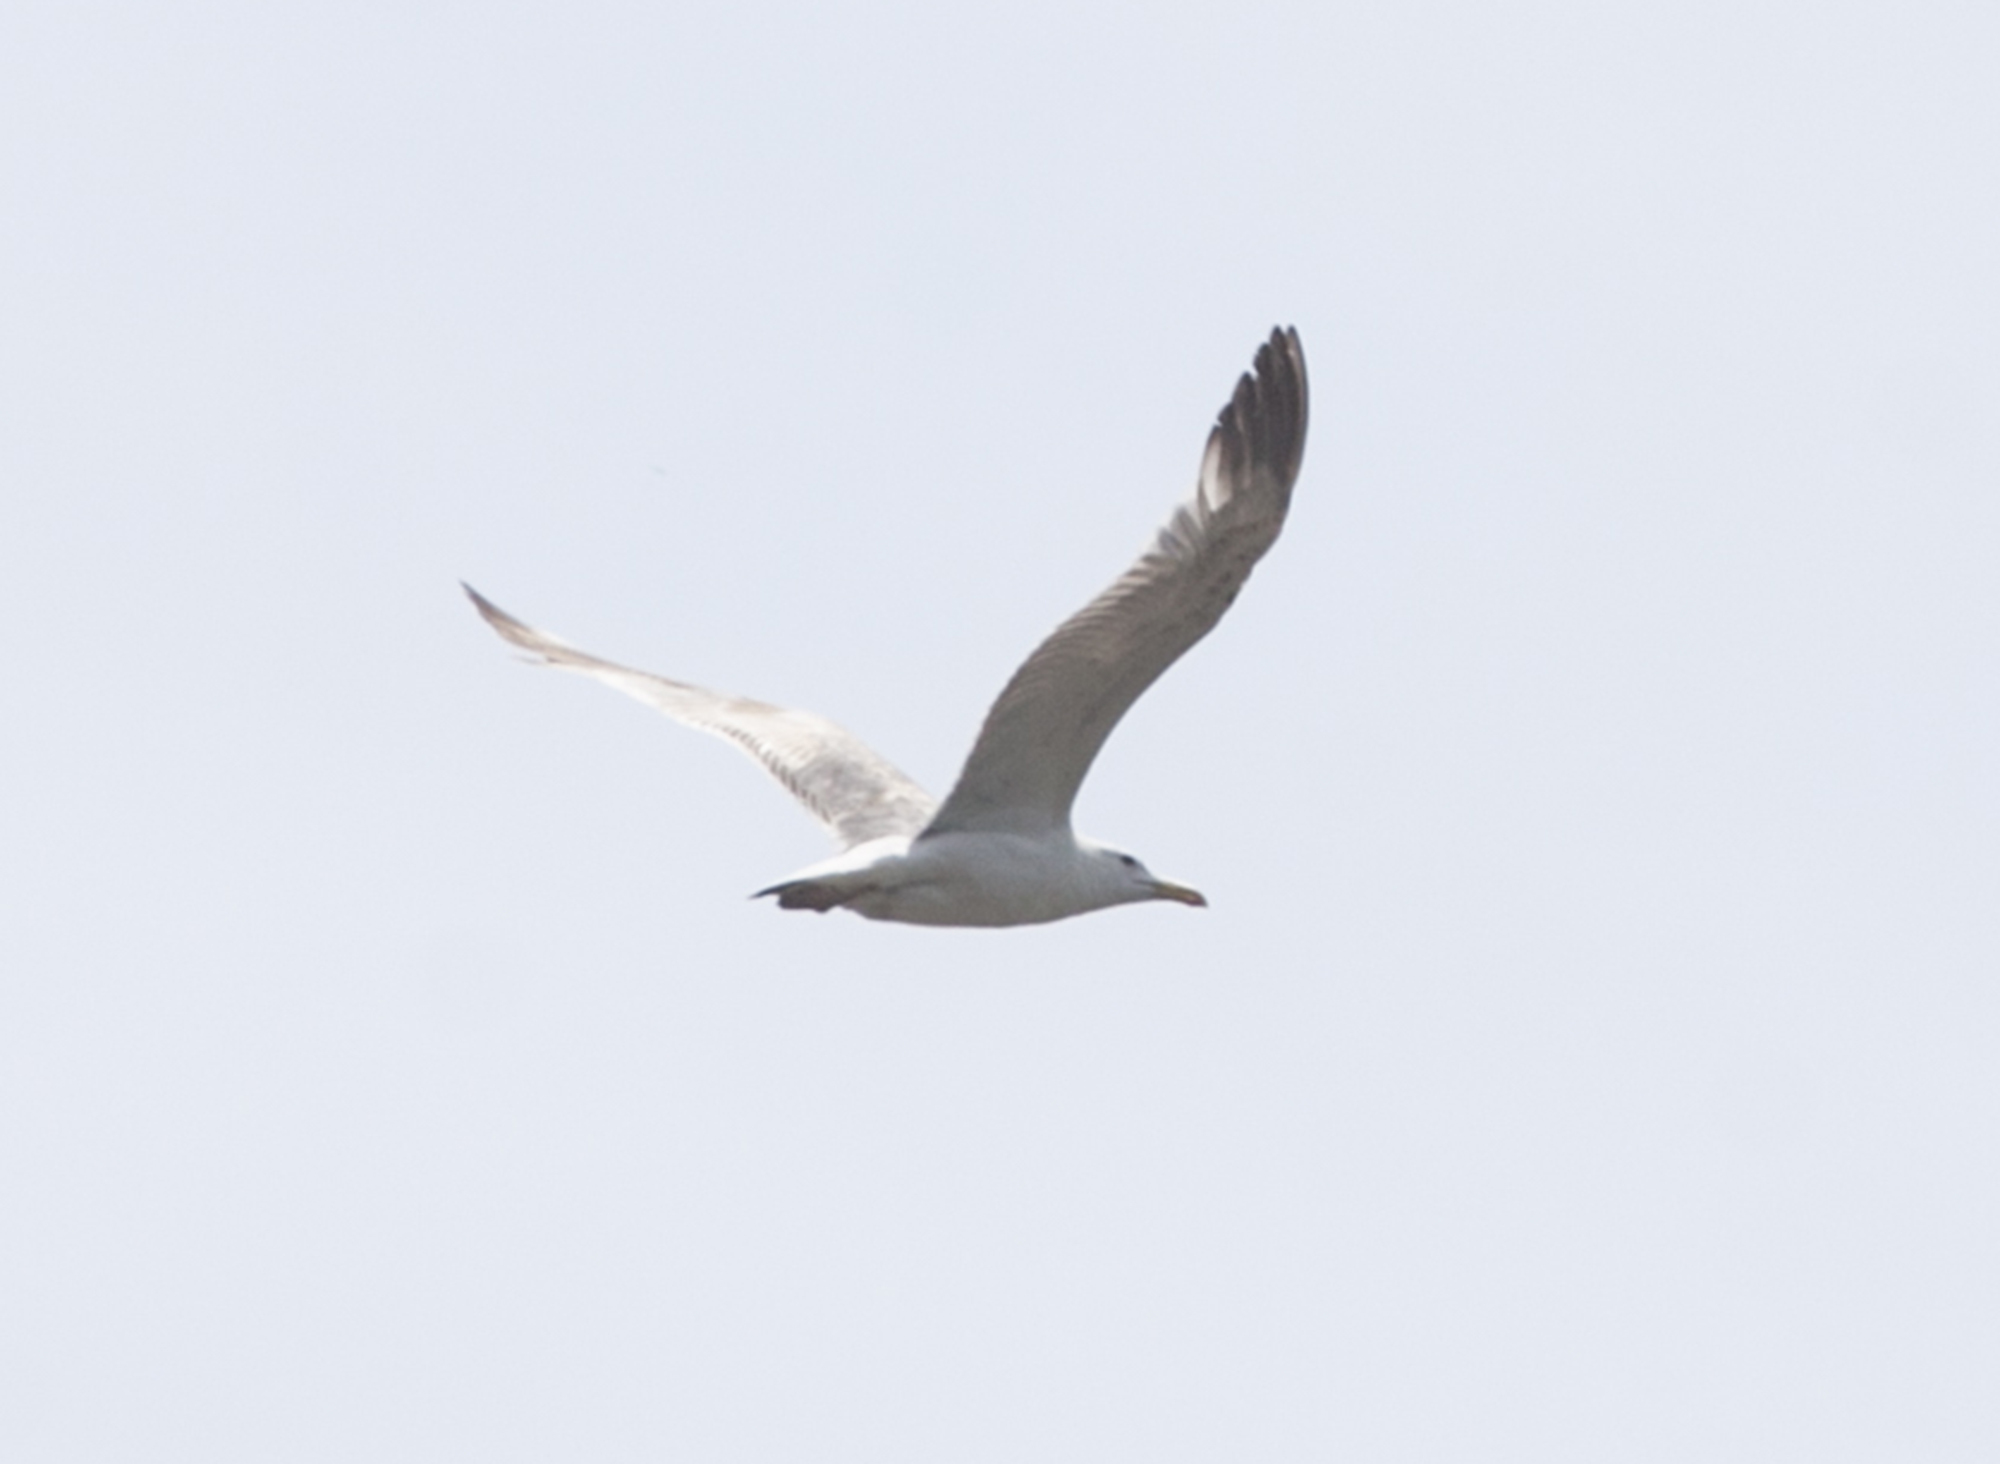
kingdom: Animalia
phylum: Chordata
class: Aves
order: Charadriiformes
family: Laridae
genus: Larus
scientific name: Larus cachinnans
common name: Caspian gull
